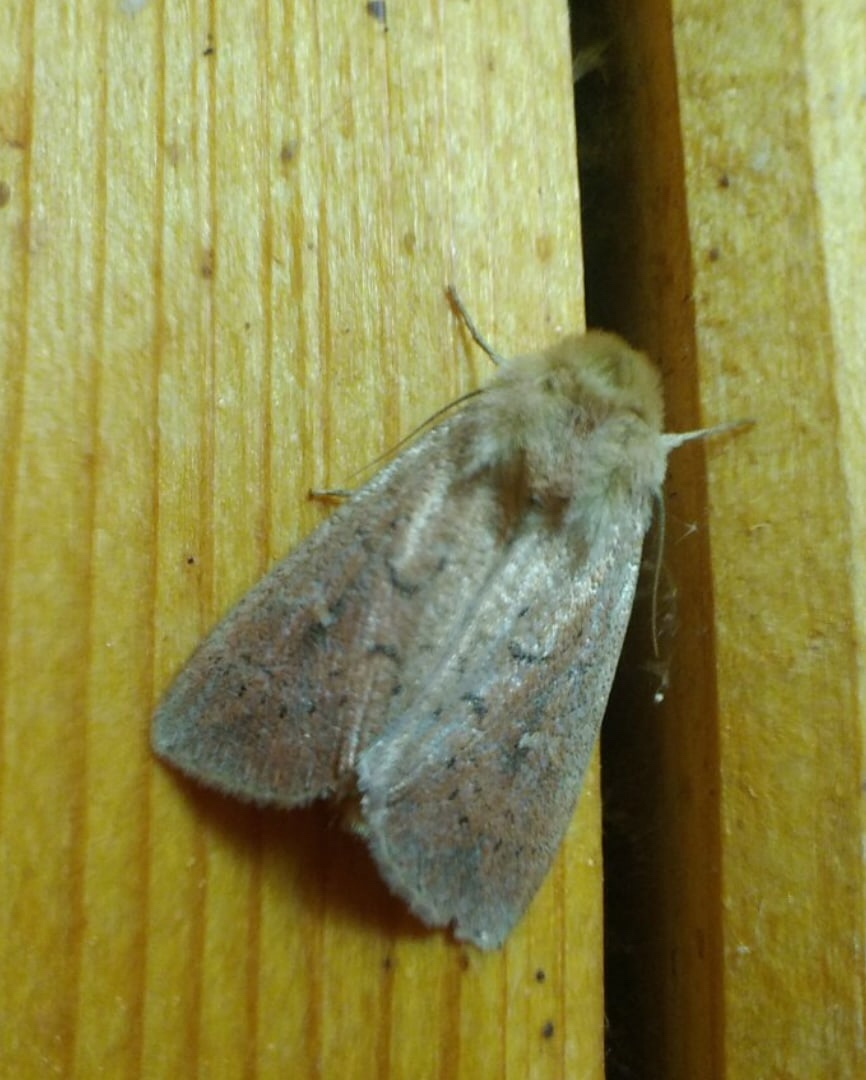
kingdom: Animalia
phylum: Arthropoda
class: Insecta
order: Lepidoptera
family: Noctuidae
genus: Mythimna
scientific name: Mythimna ferrago
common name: Clay
